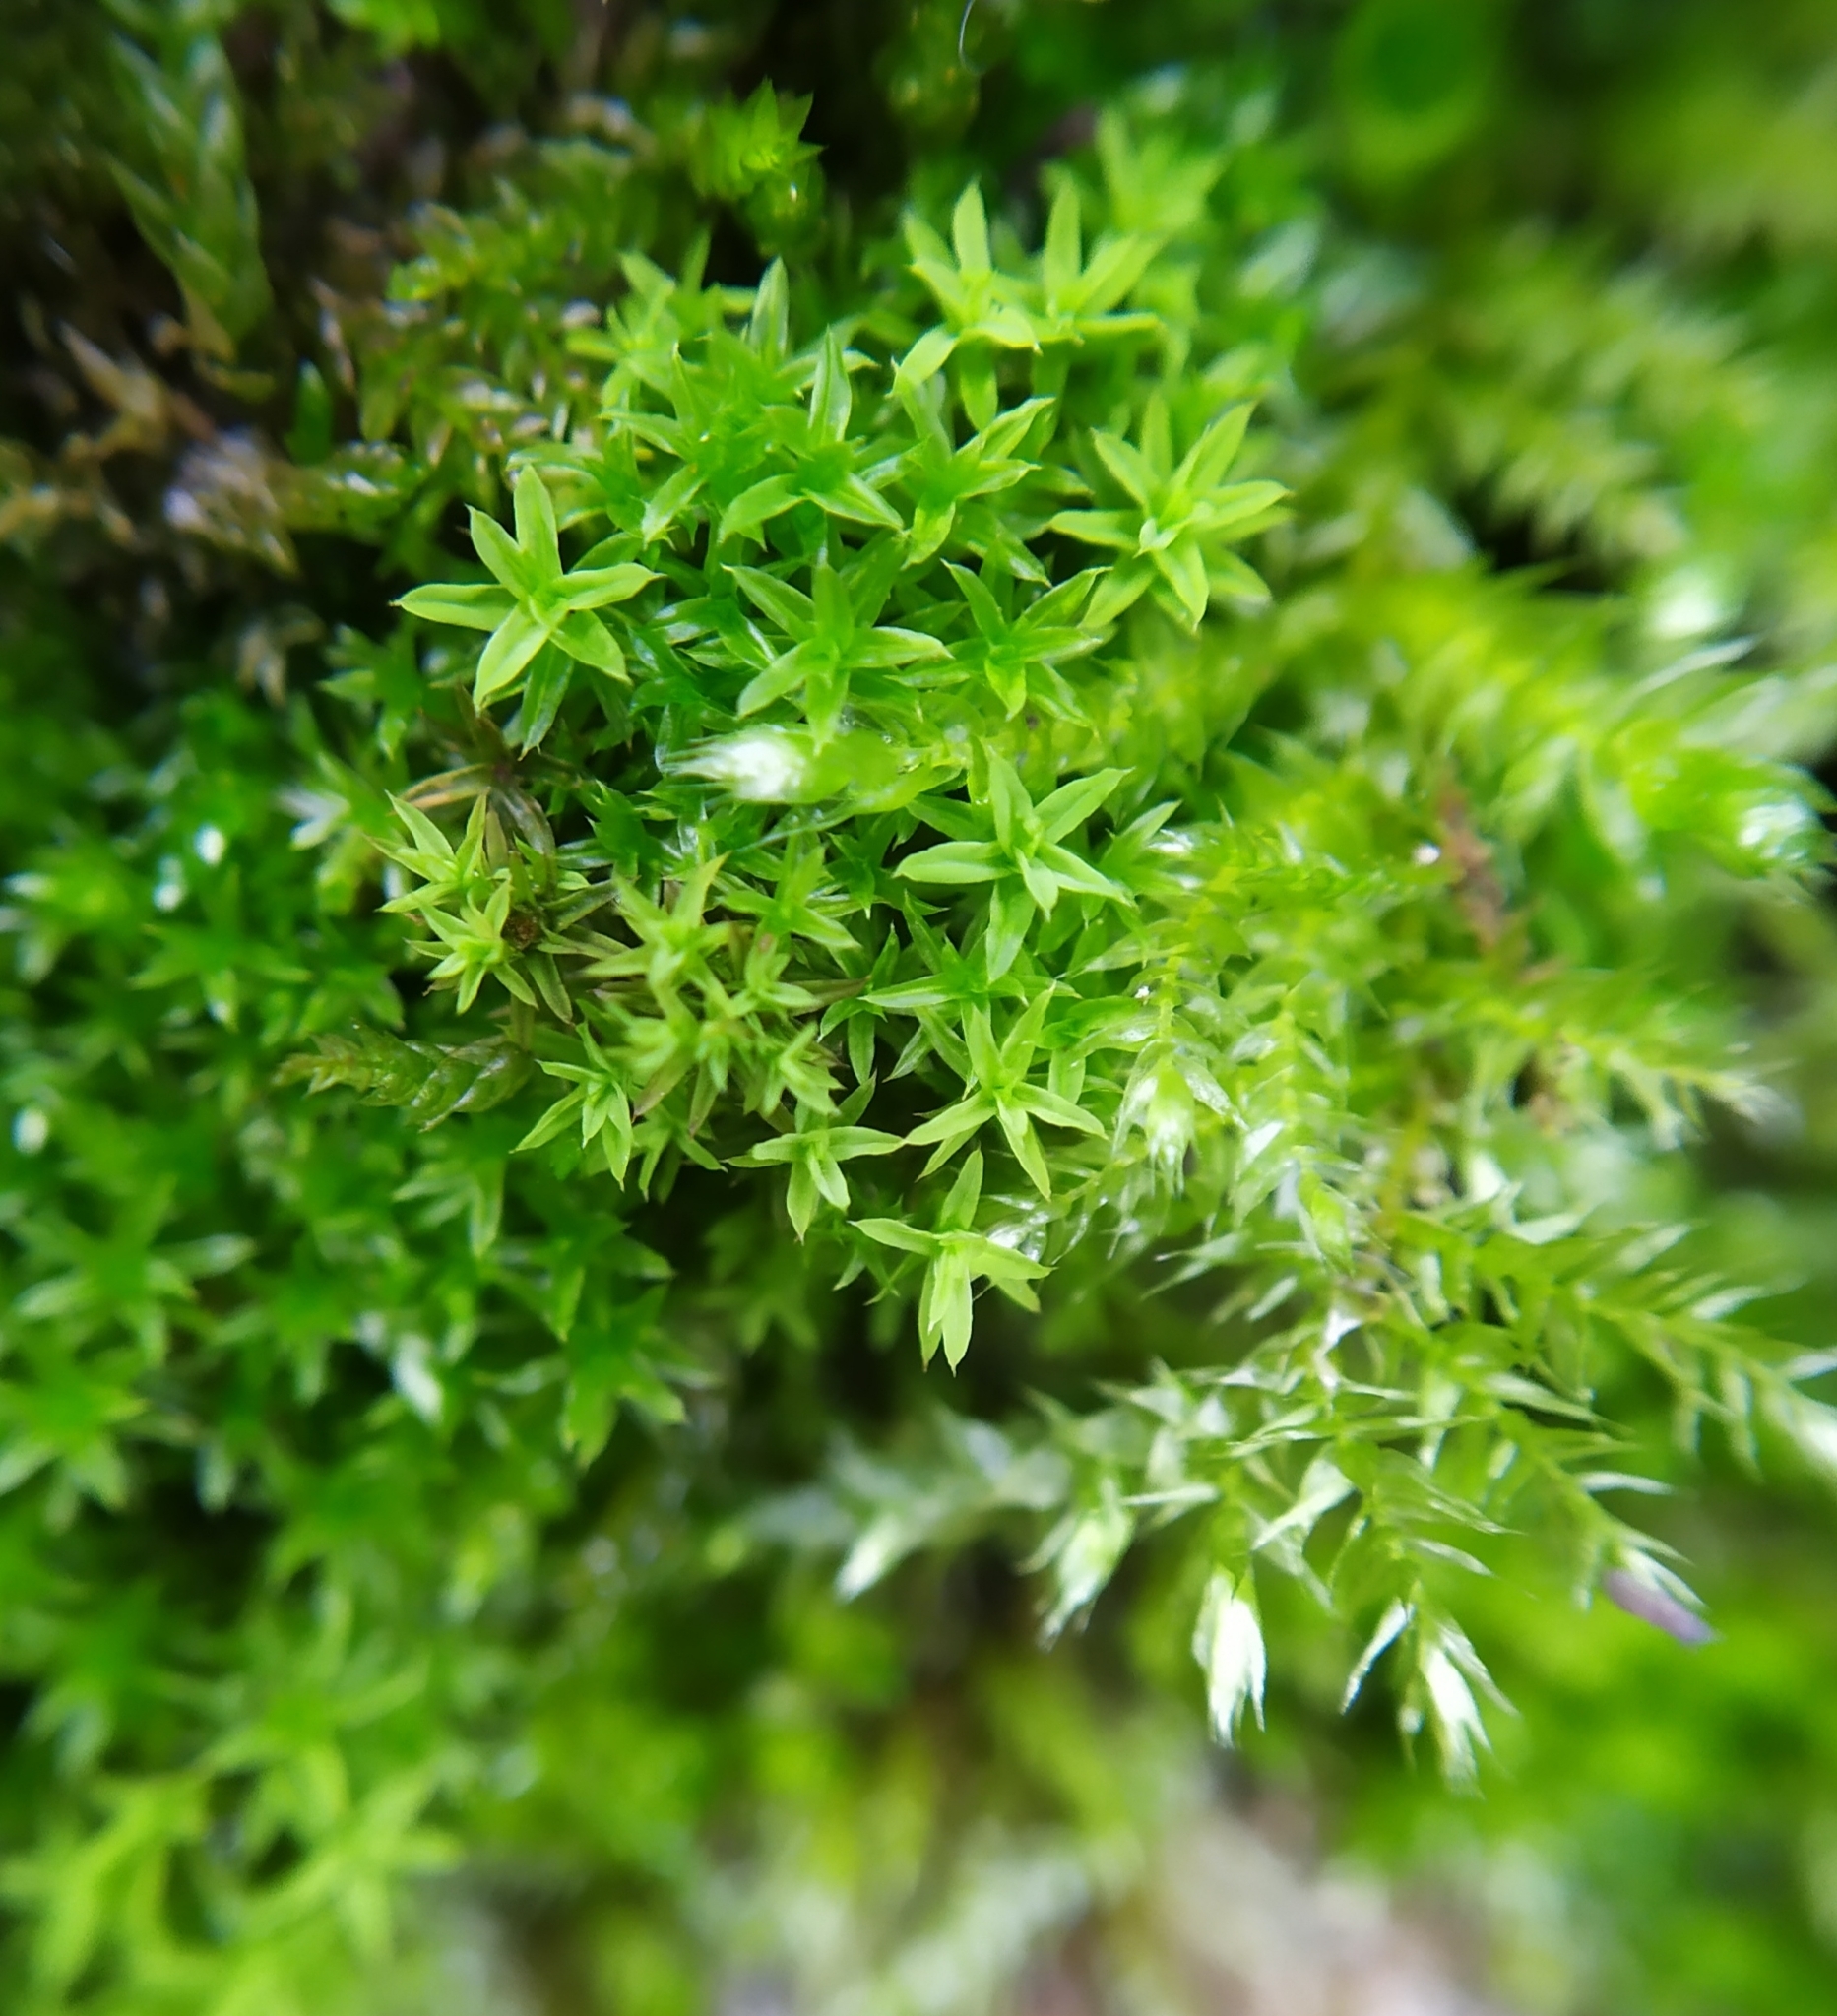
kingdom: Plantae
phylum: Bryophyta
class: Bryopsida
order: Pottiales
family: Pottiaceae
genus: Barbula
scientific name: Barbula unguiculata
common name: Prickly beard moss
